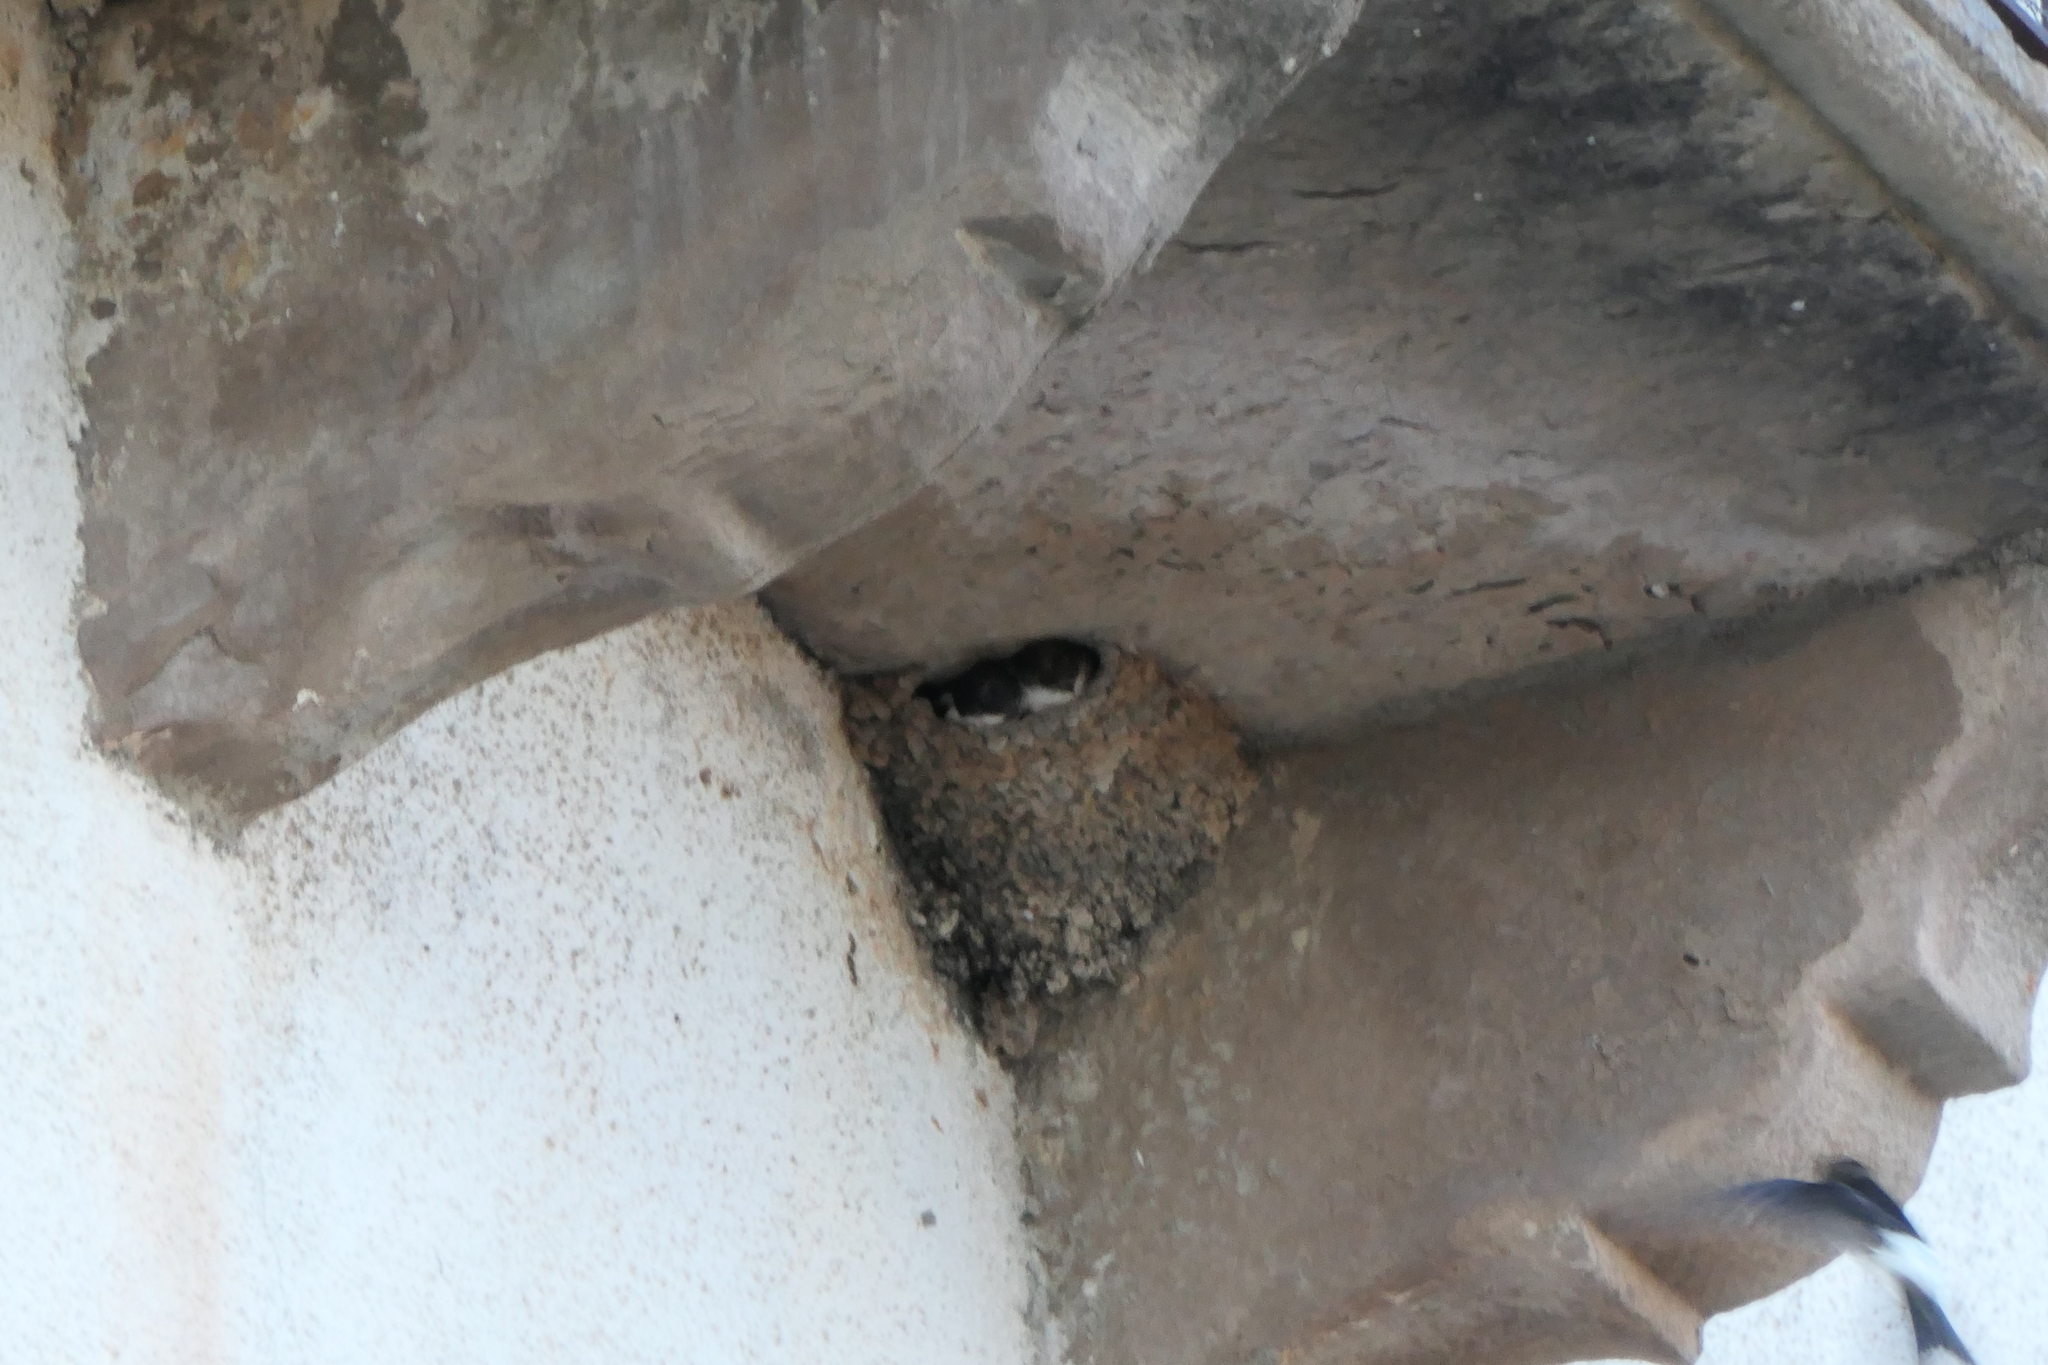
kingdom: Animalia
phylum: Chordata
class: Aves
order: Passeriformes
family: Hirundinidae
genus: Delichon
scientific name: Delichon urbicum
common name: Common house martin
